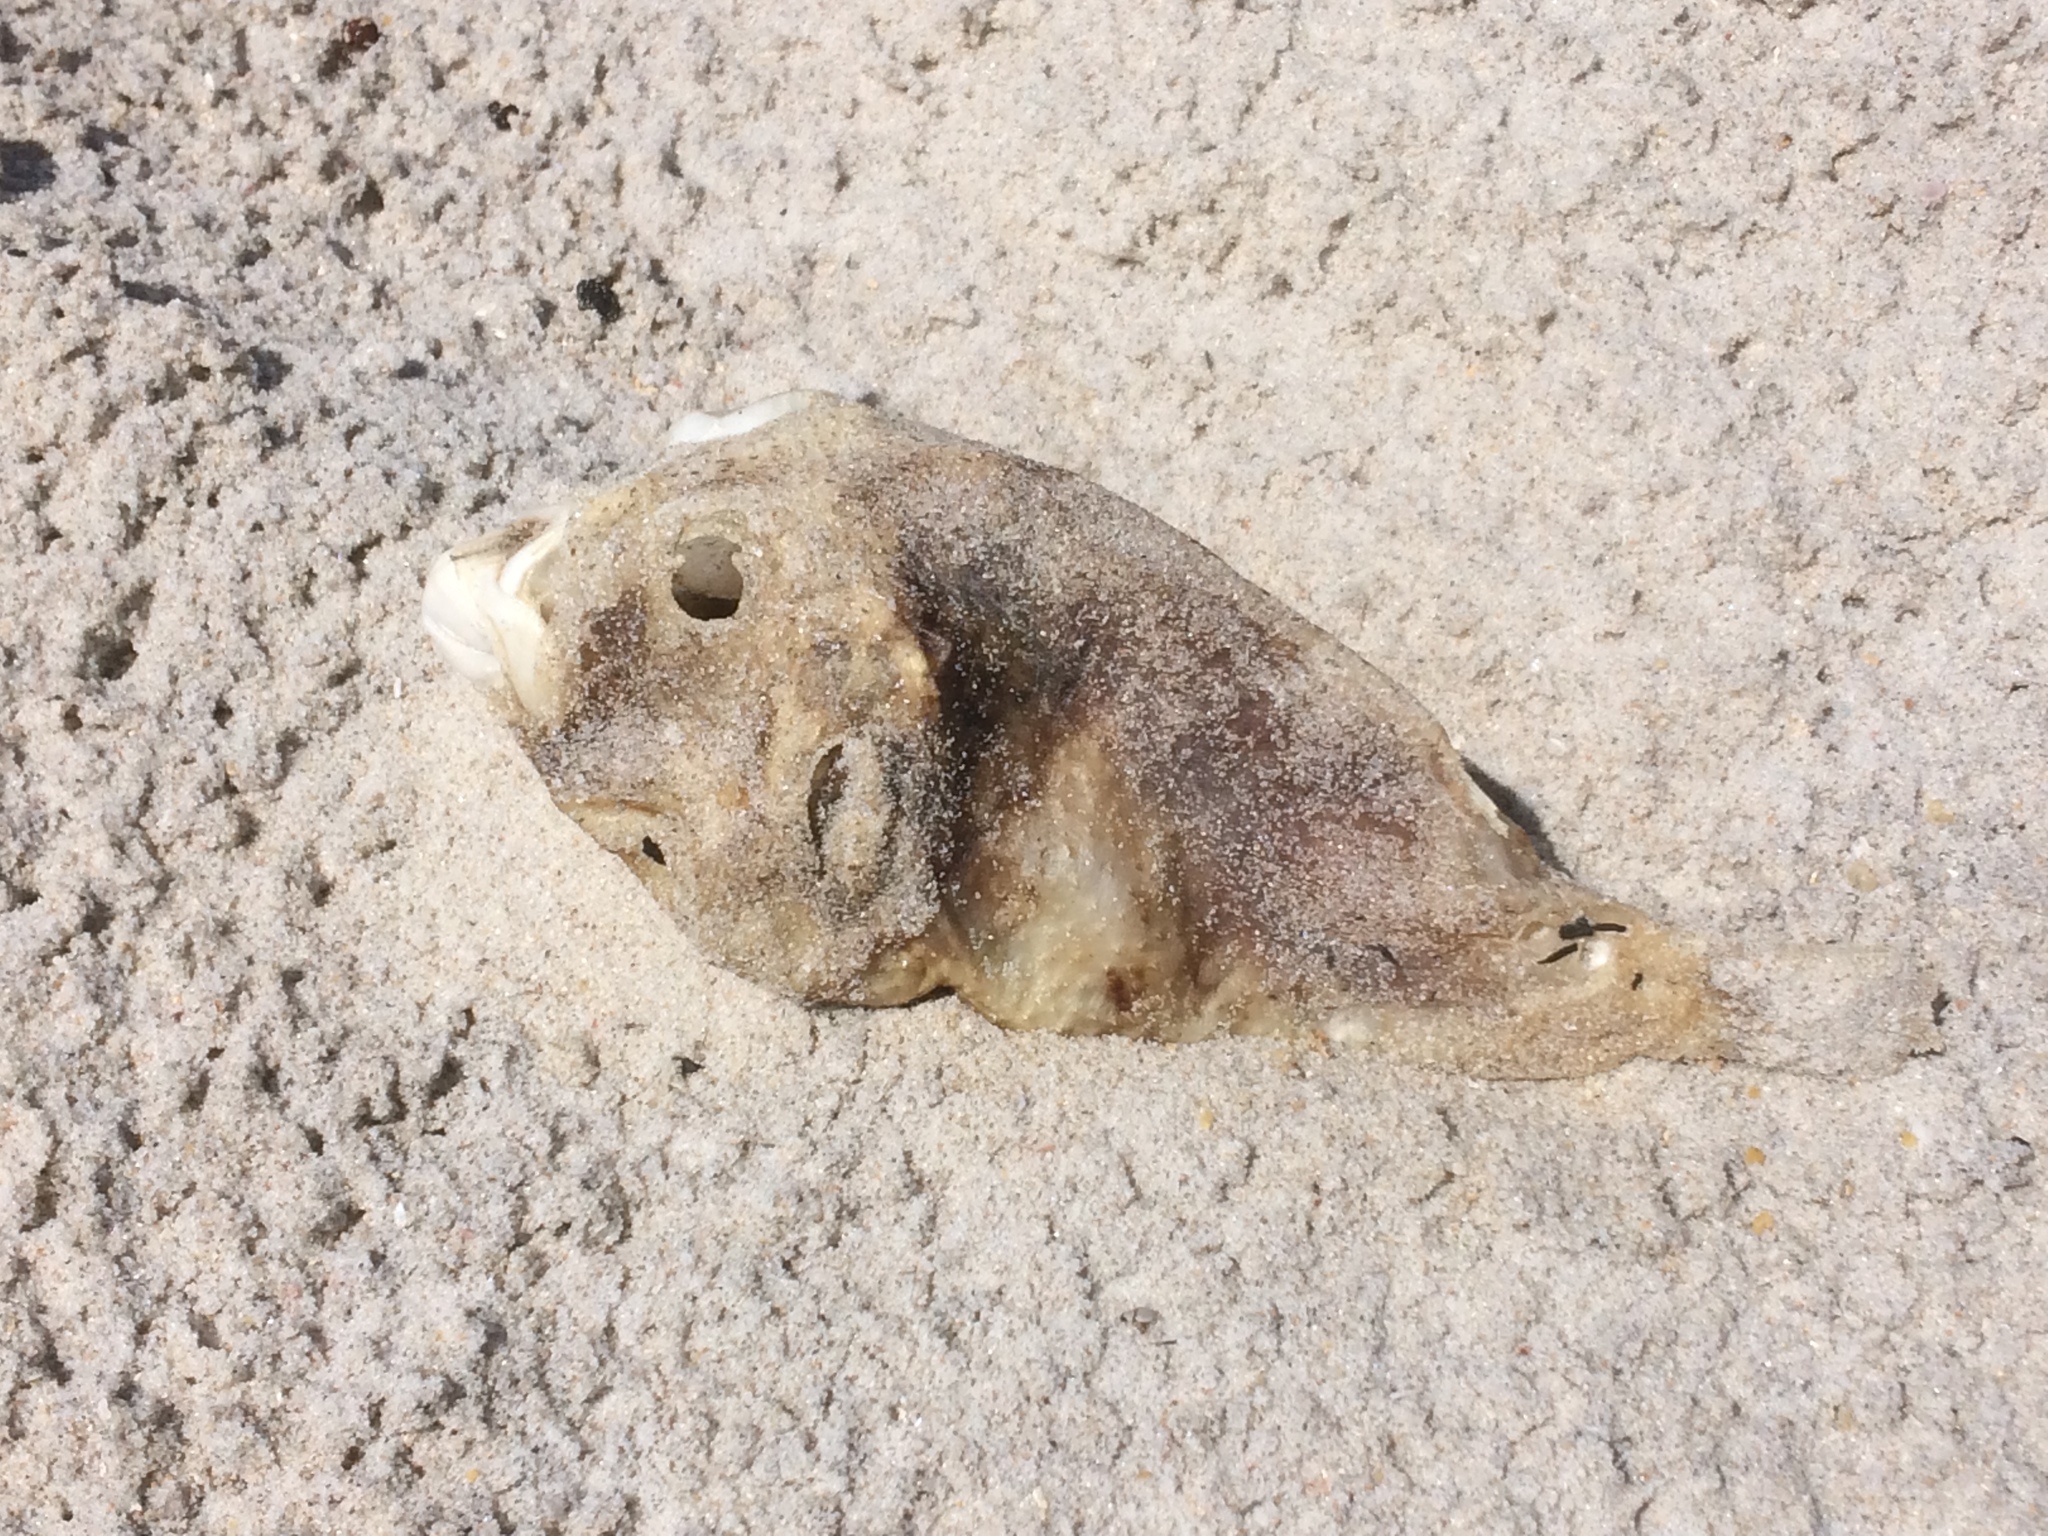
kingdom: Animalia
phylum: Chordata
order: Tetraodontiformes
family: Tetraodontidae
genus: Omegophora
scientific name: Omegophora armilla
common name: Ringed pufferfish
